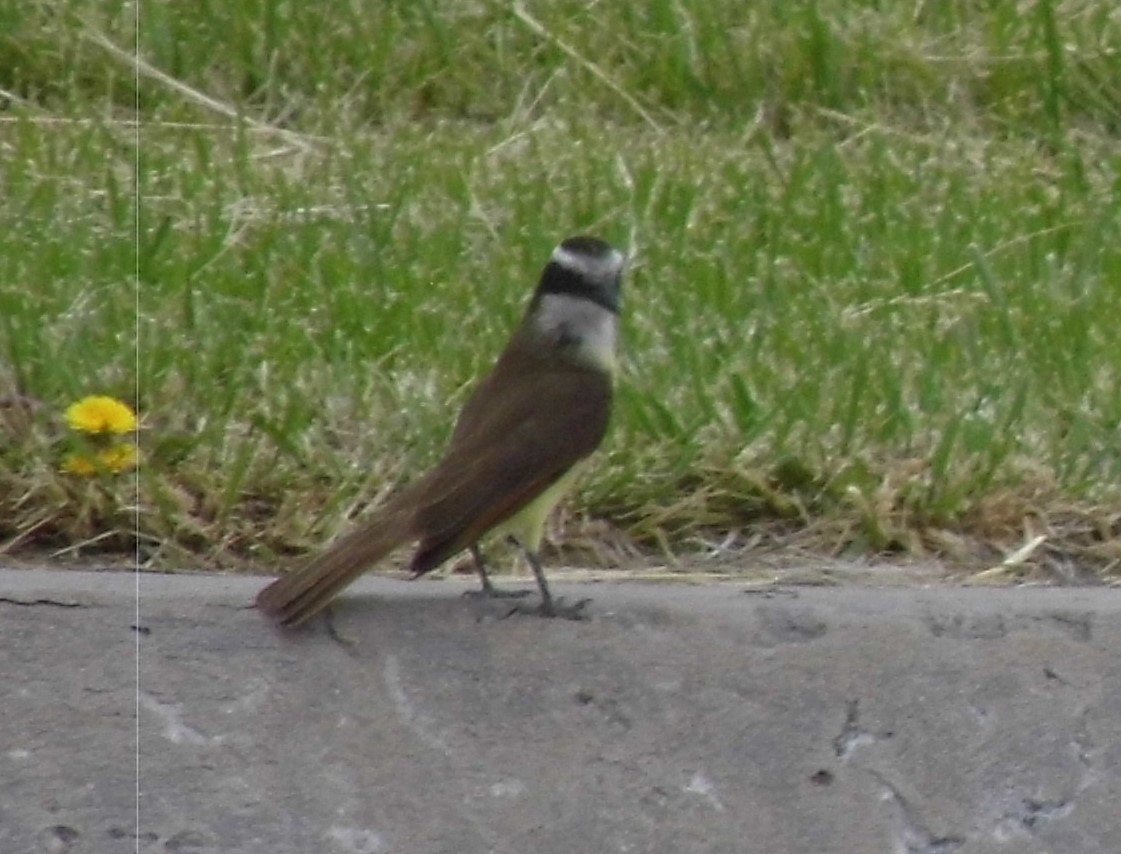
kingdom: Animalia
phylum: Chordata
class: Aves
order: Passeriformes
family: Tyrannidae
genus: Pitangus
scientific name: Pitangus sulphuratus
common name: Great kiskadee
